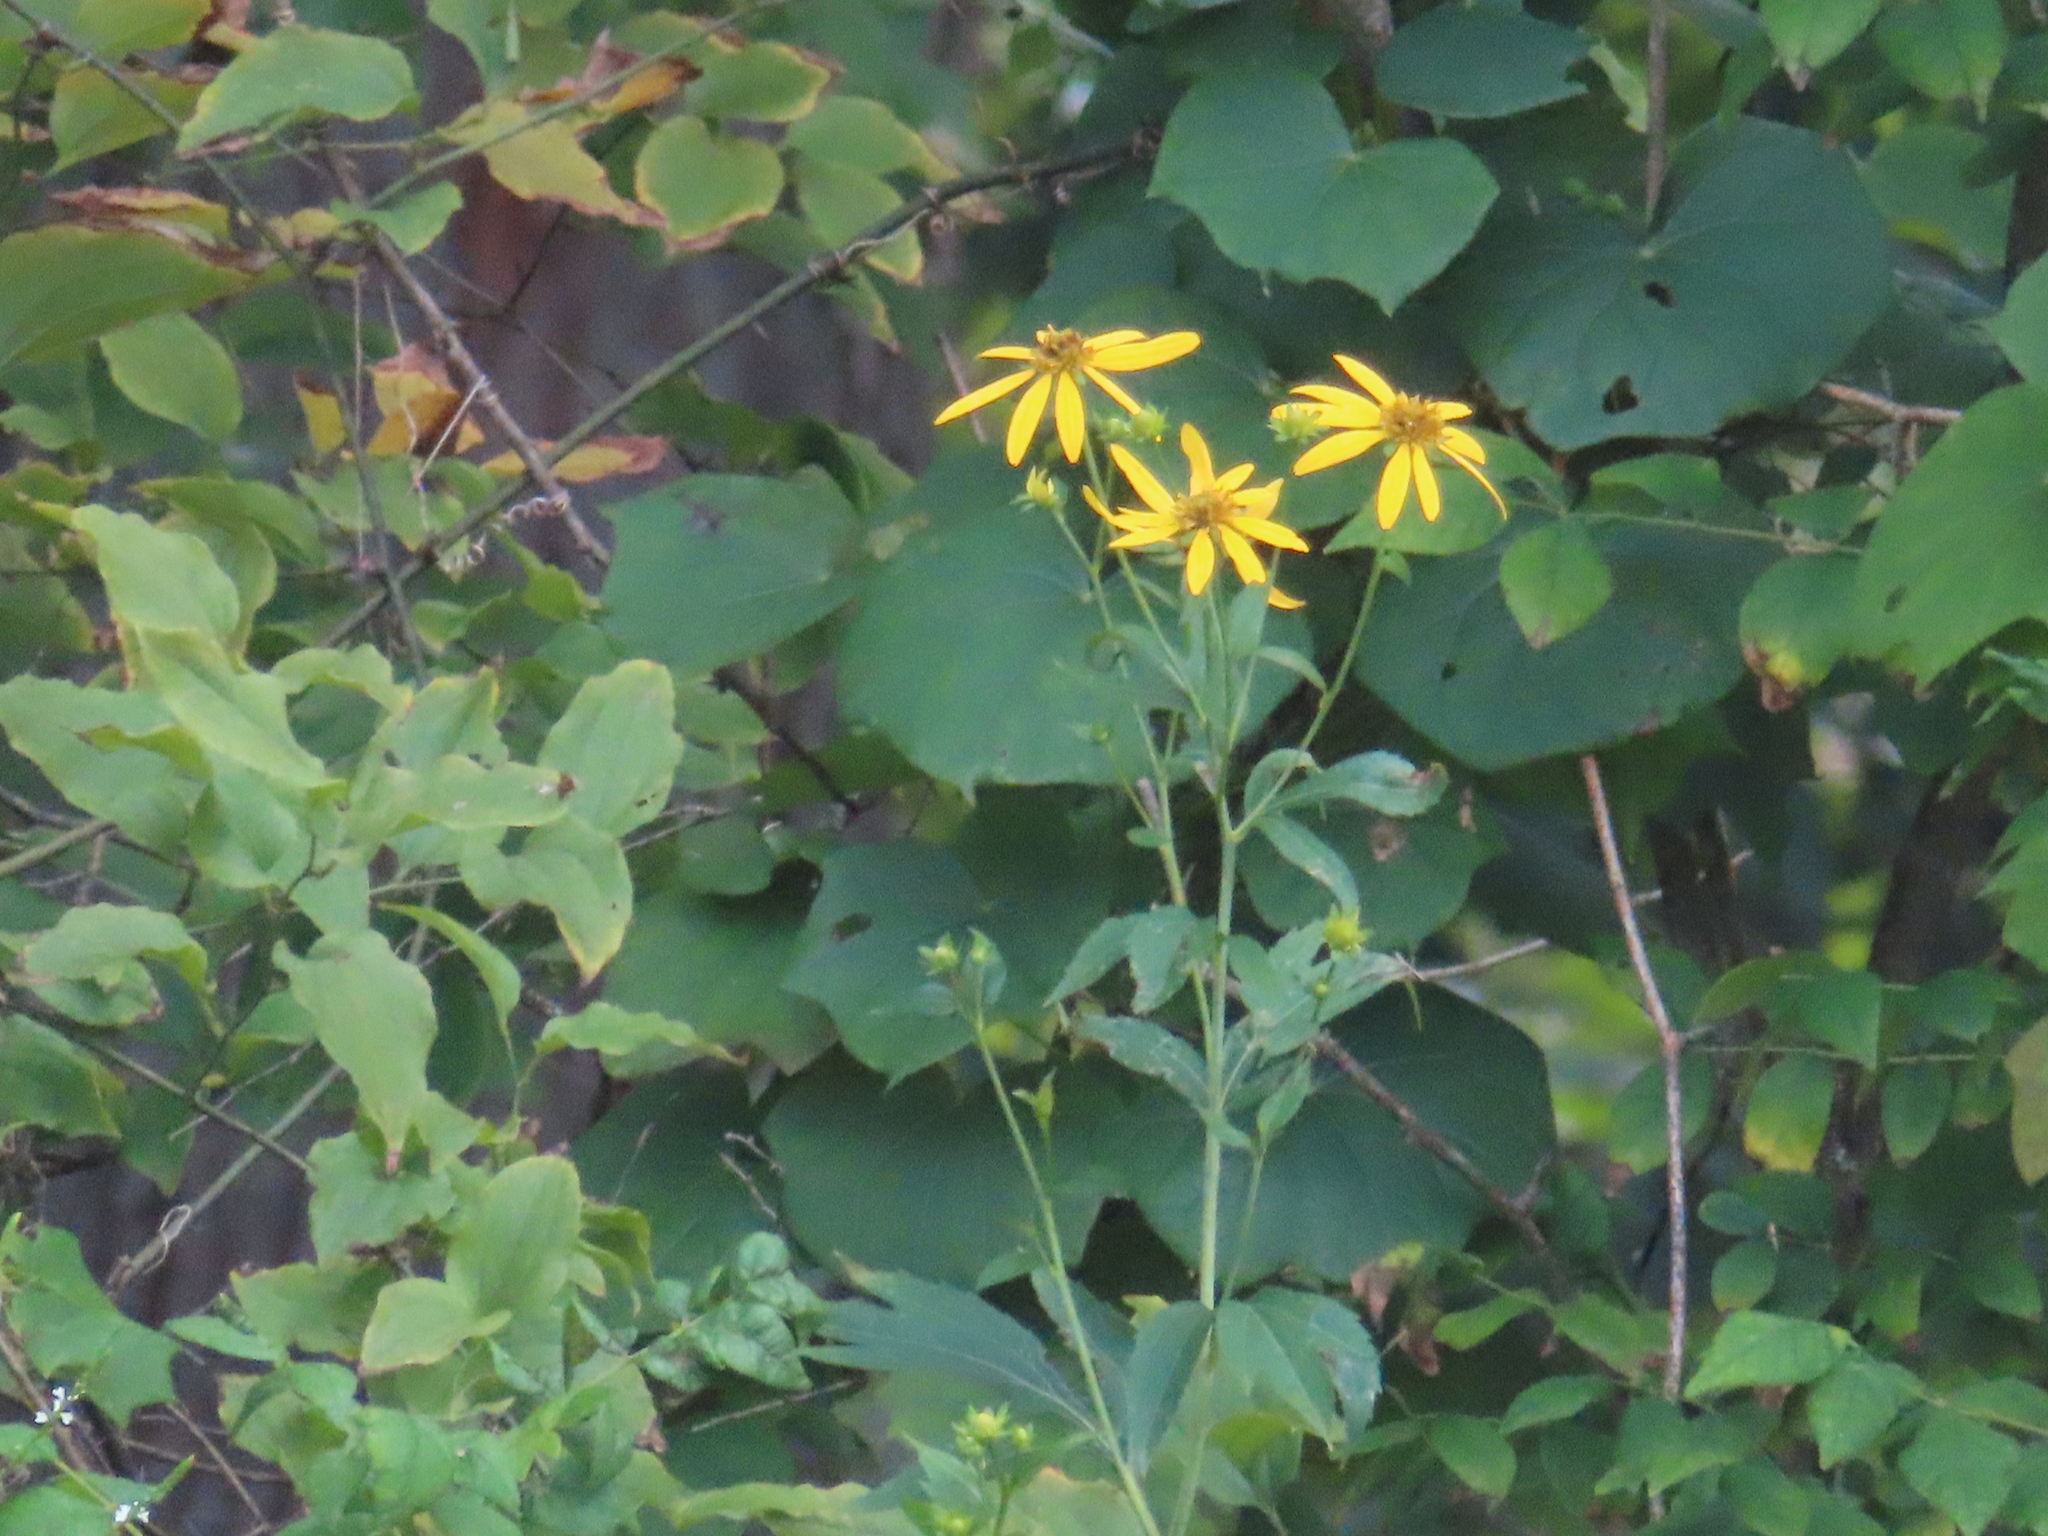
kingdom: Plantae
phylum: Tracheophyta
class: Magnoliopsida
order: Asterales
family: Asteraceae
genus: Rudbeckia
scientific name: Rudbeckia laciniata
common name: Coneflower
